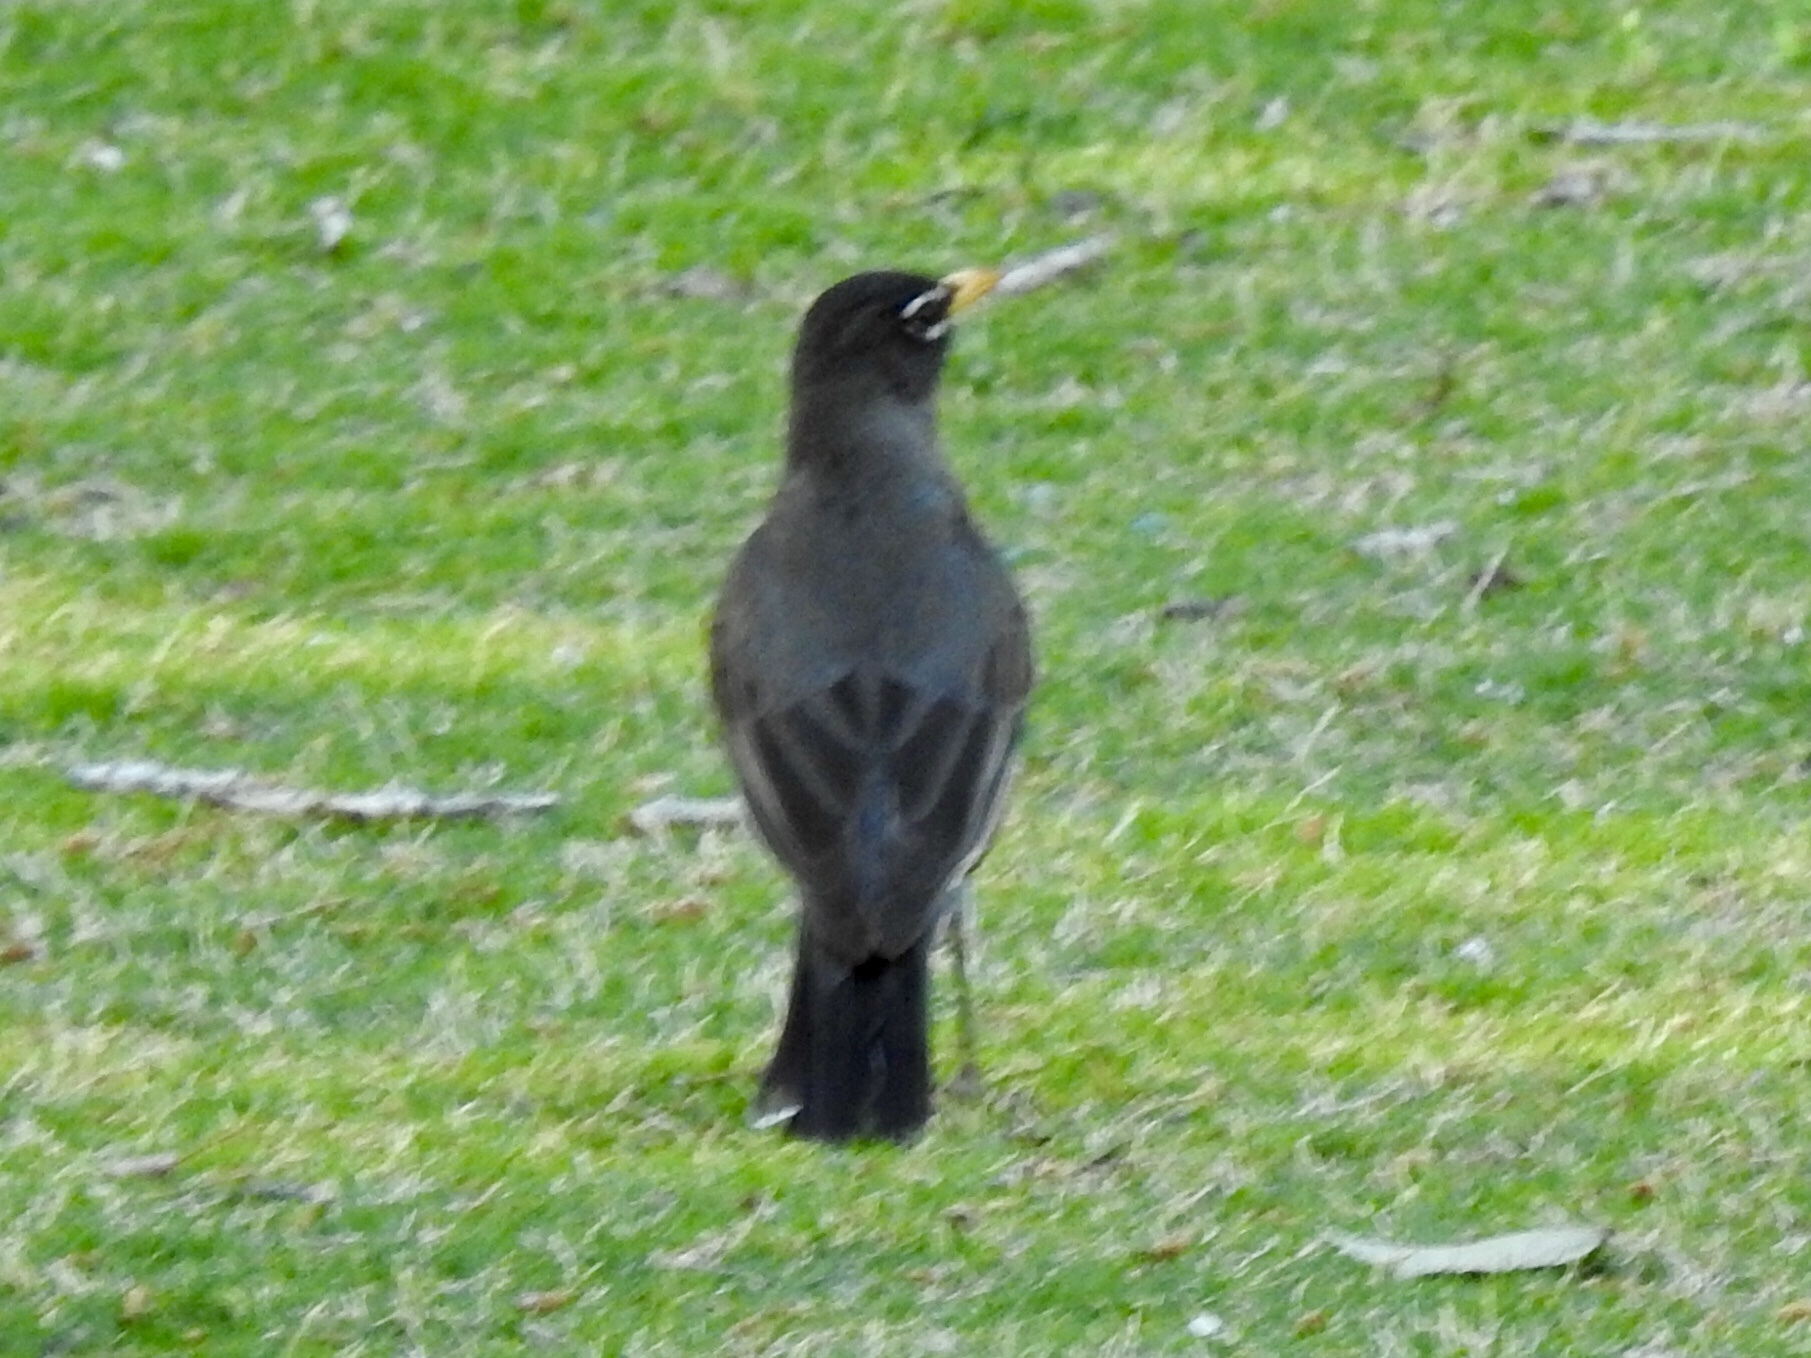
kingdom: Animalia
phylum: Chordata
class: Aves
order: Passeriformes
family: Turdidae
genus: Turdus
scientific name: Turdus migratorius
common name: American robin
